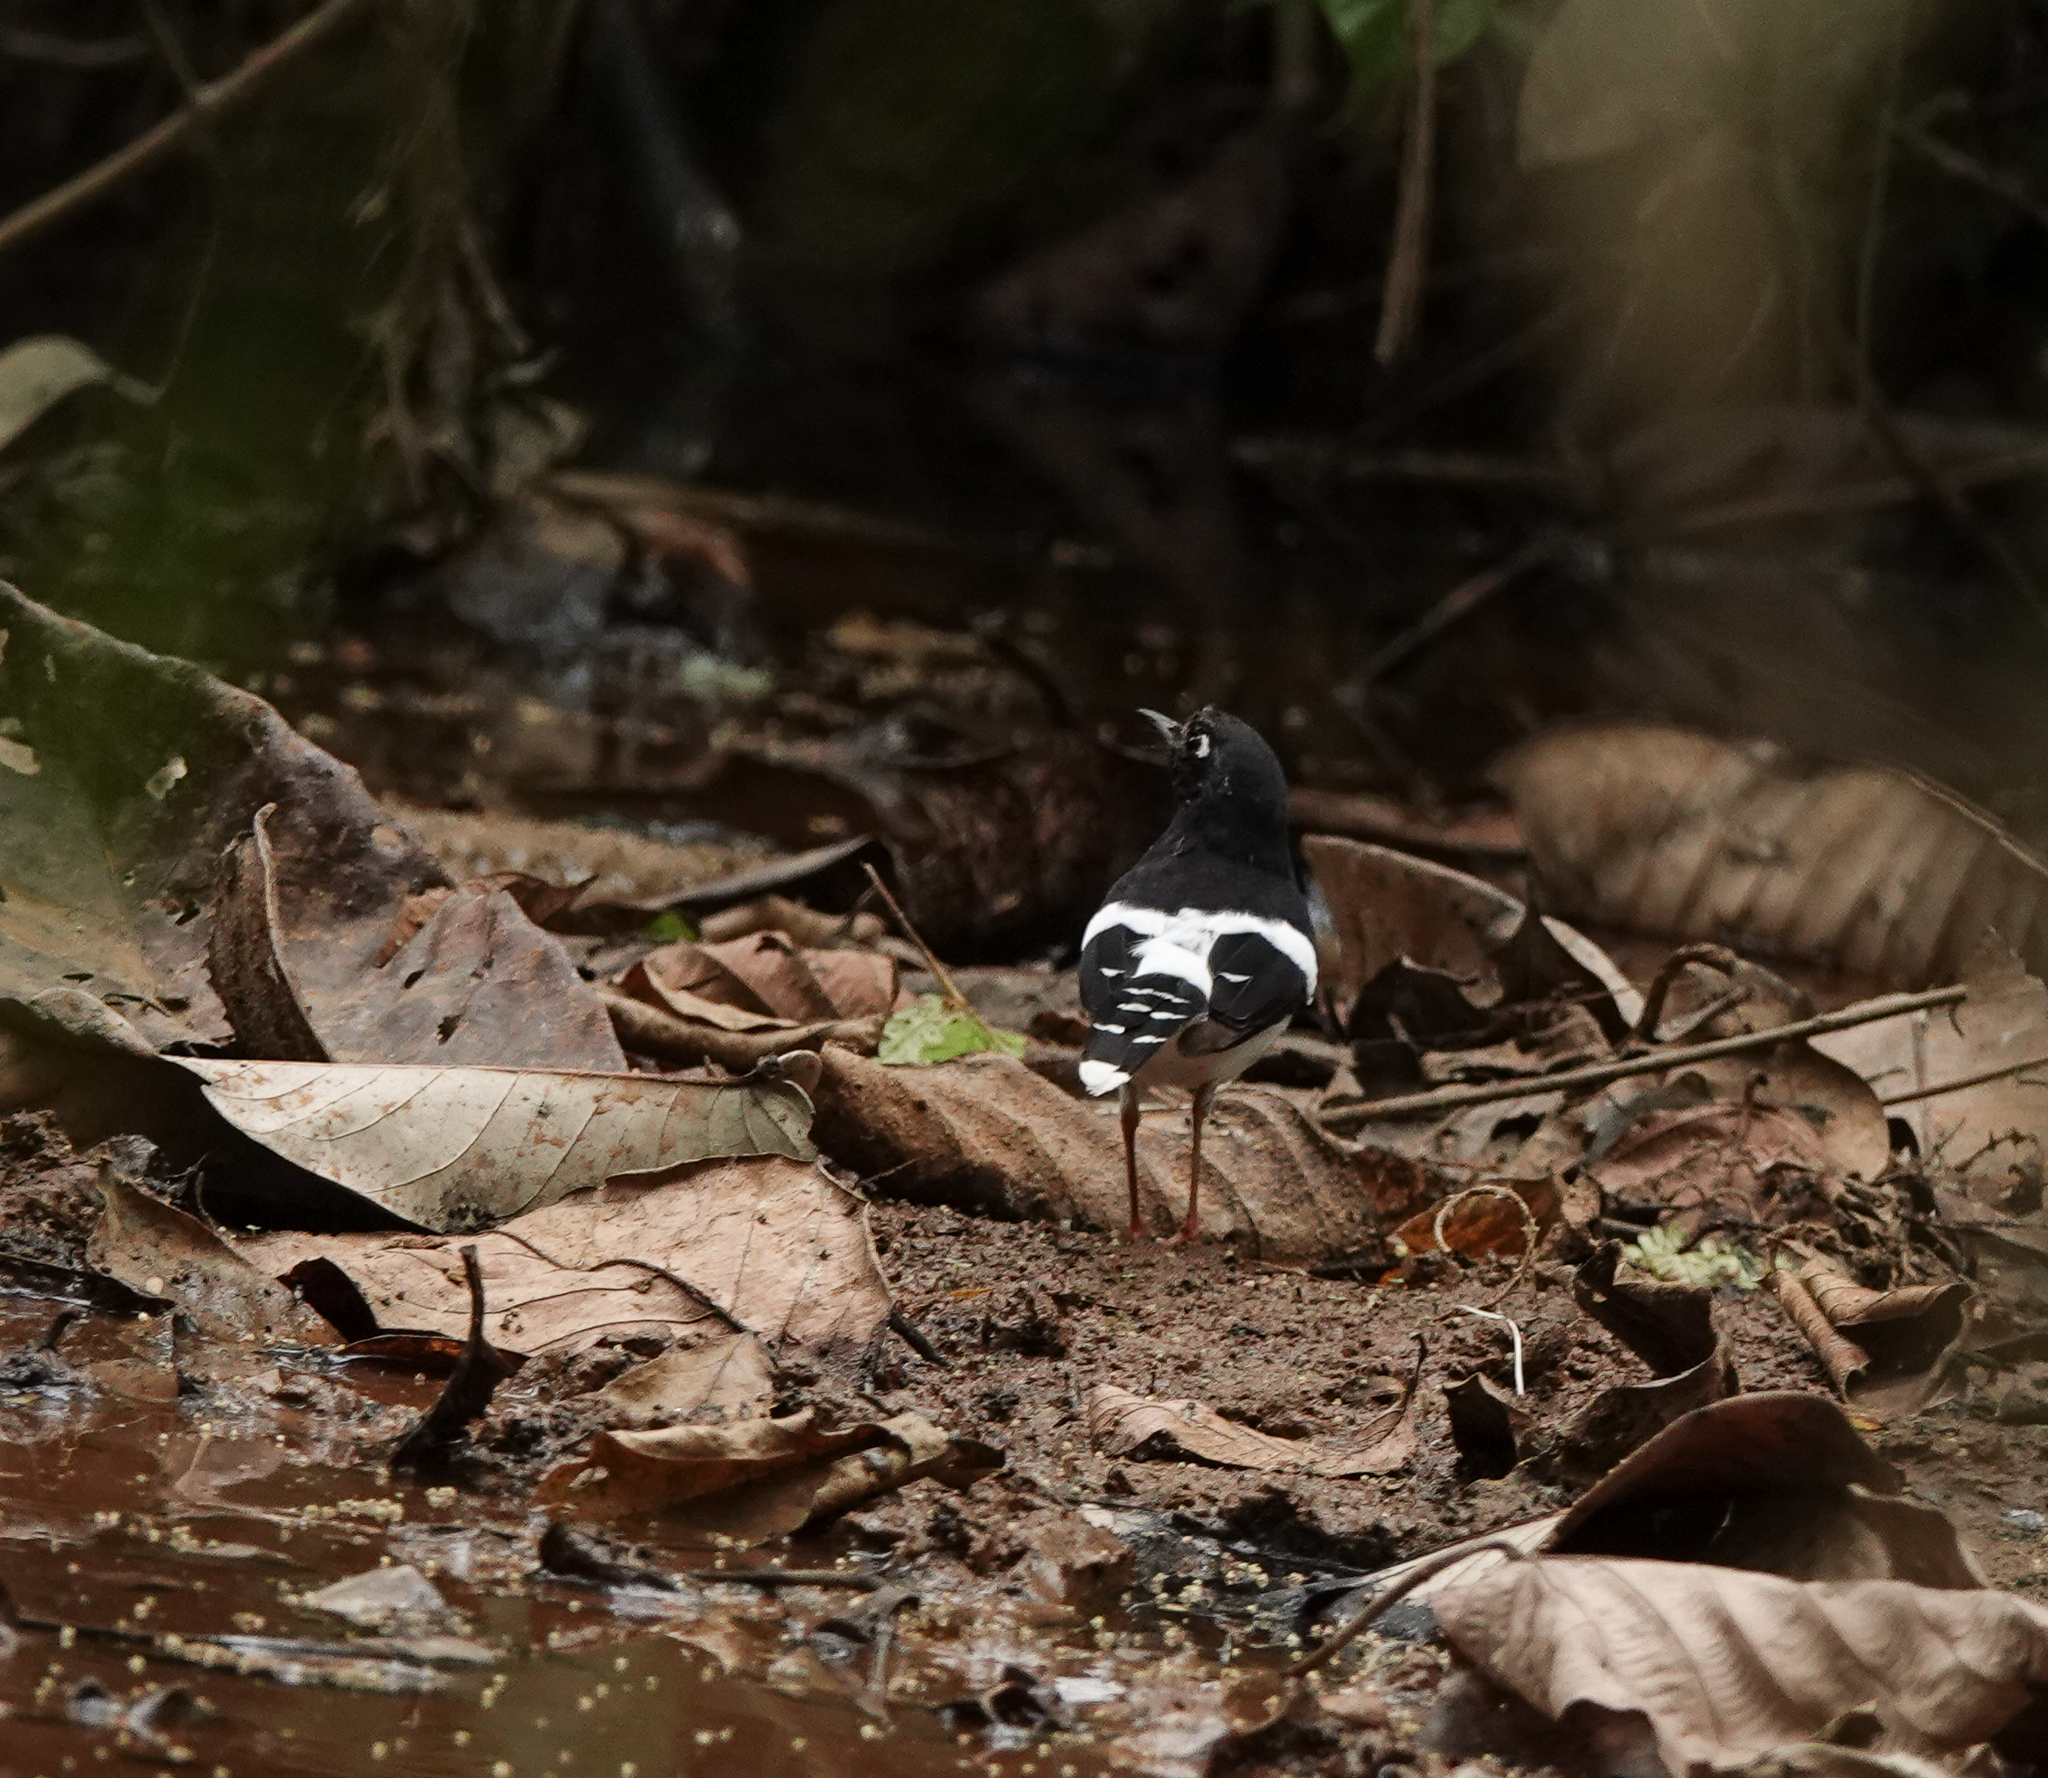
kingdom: Animalia
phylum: Chordata
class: Aves
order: Passeriformes
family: Muscicapidae
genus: Enicurus
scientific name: Enicurus immaculatus
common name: Black-backed forktail
